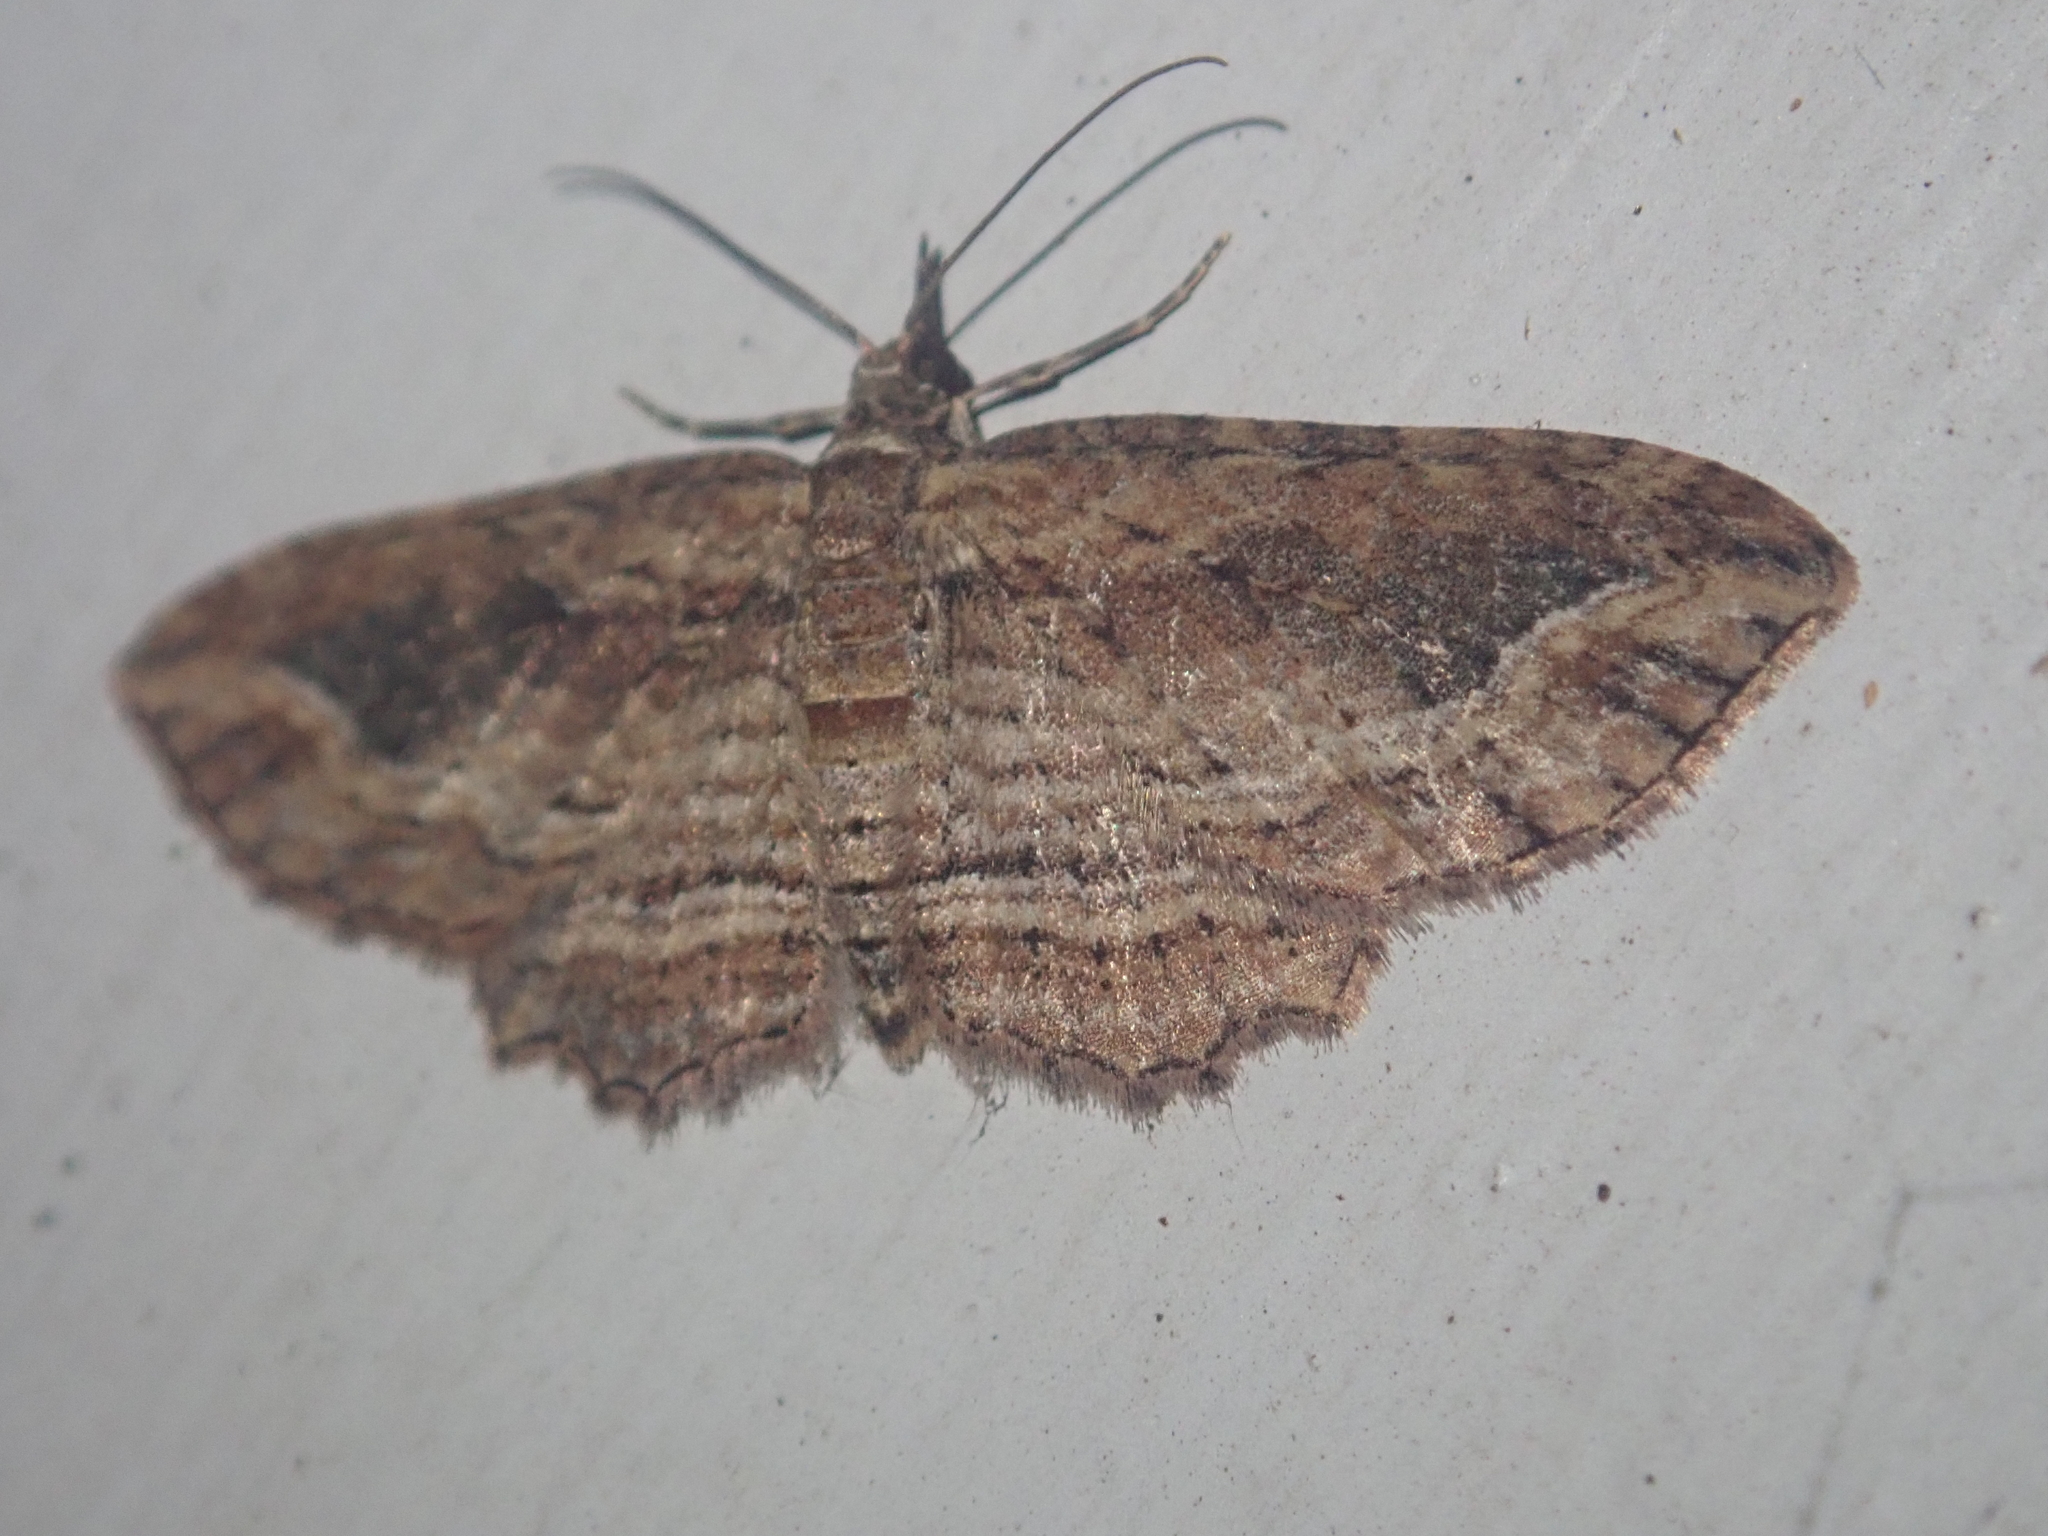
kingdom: Animalia
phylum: Arthropoda
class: Insecta
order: Lepidoptera
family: Geometridae
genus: Chloroclystis
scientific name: Chloroclystis filata
